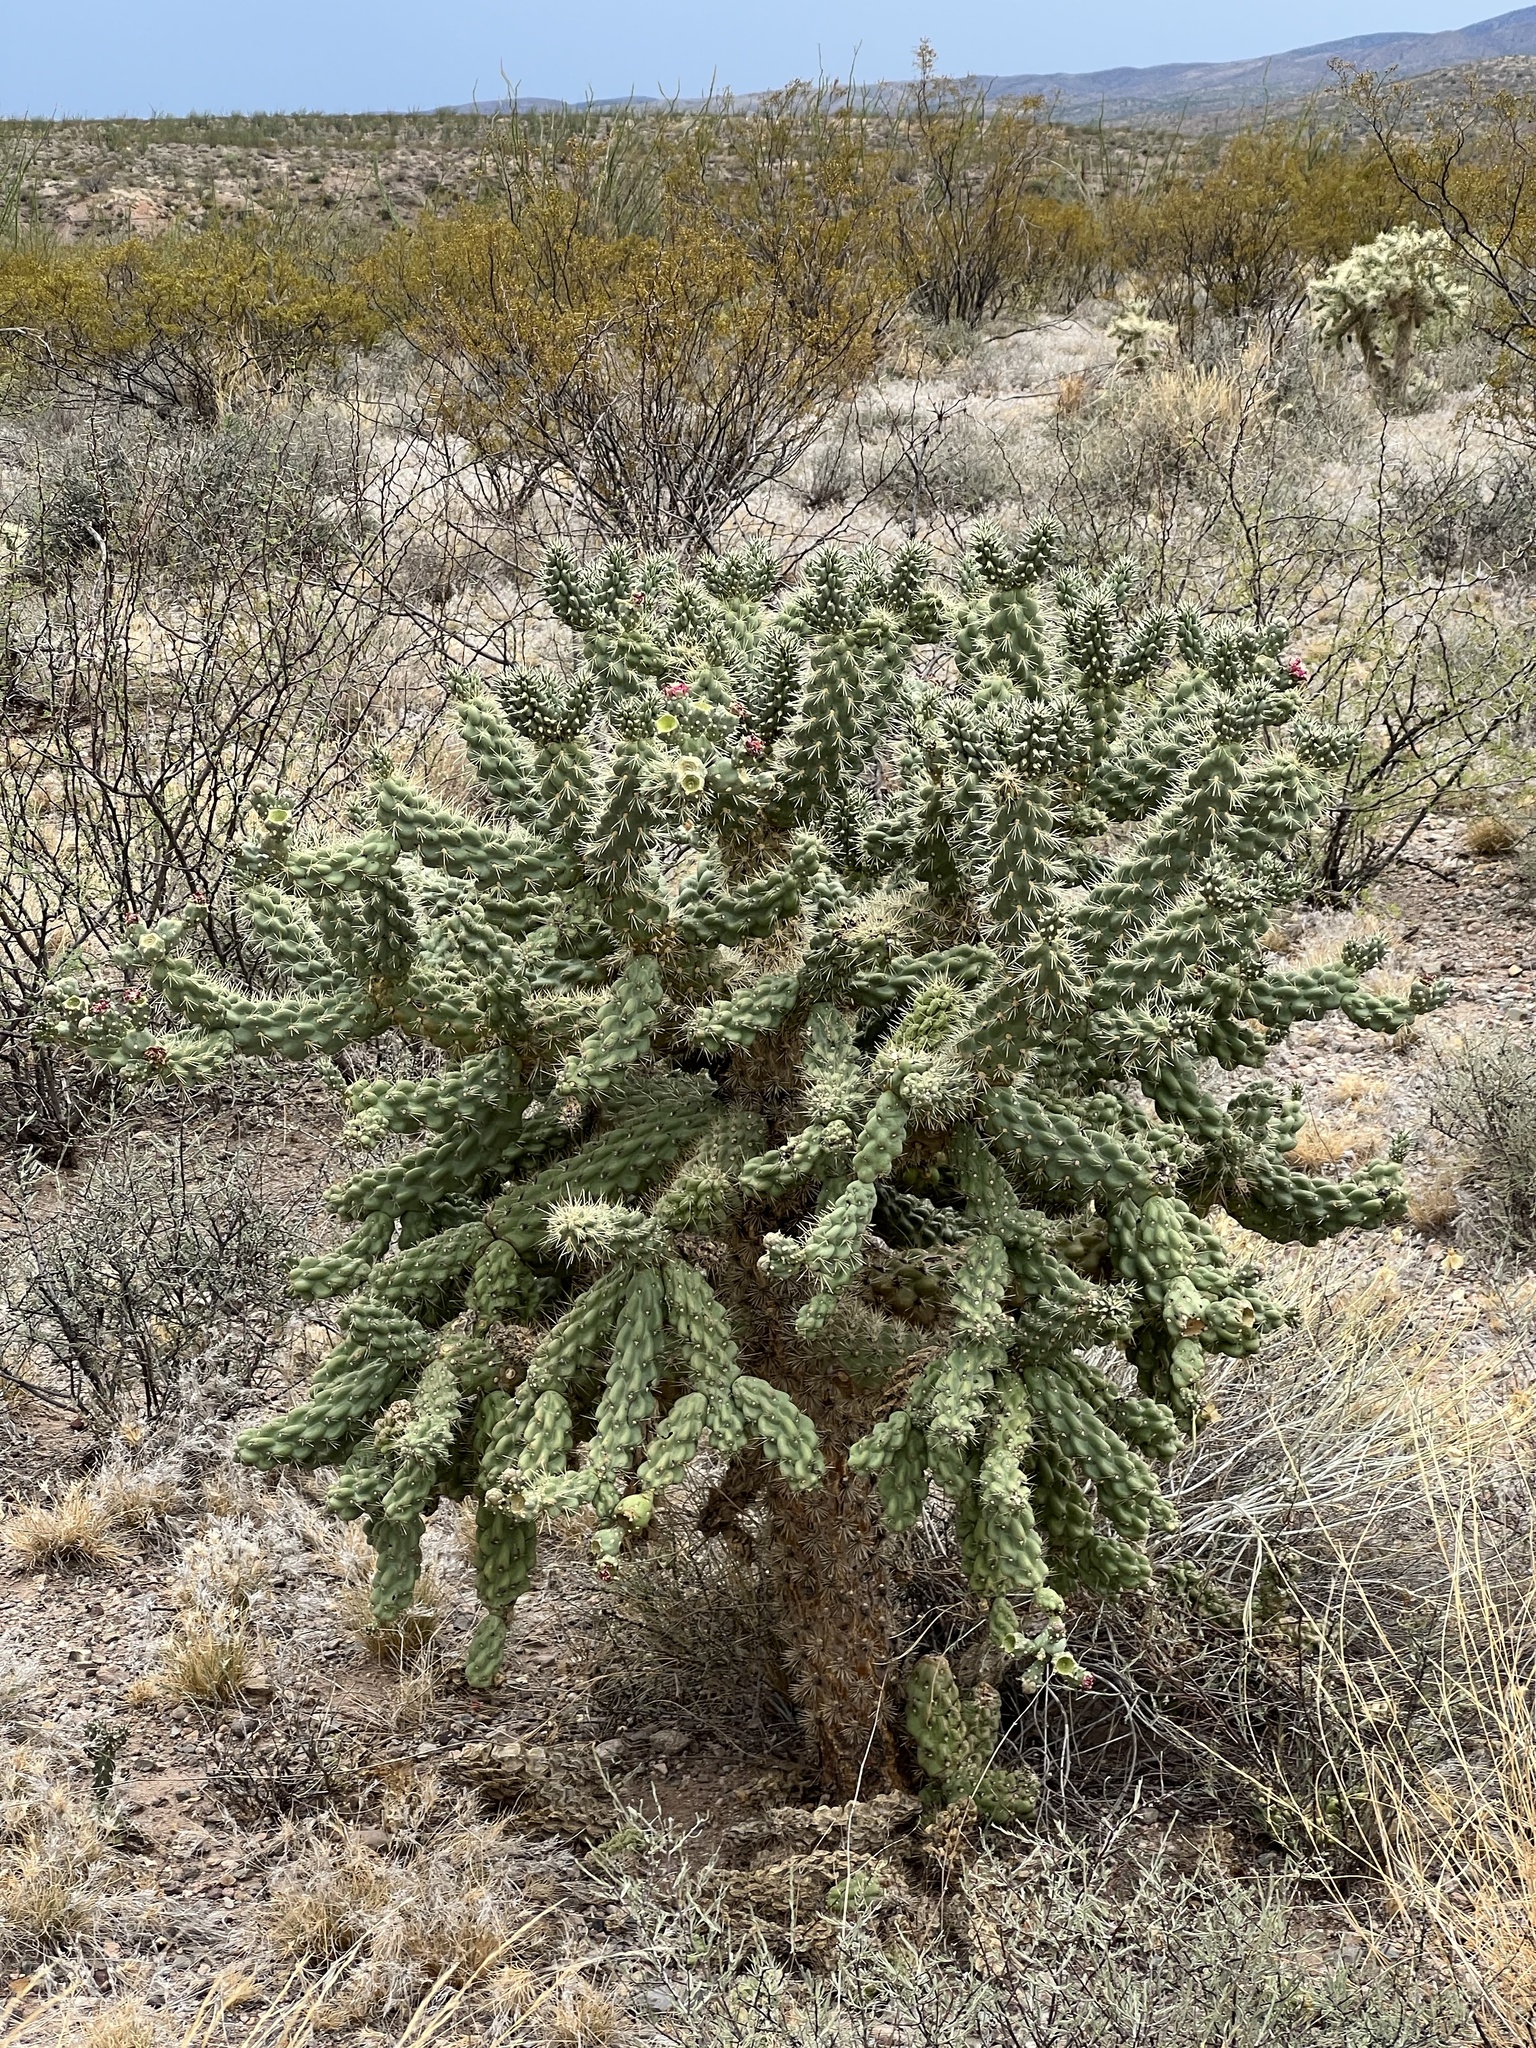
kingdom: Plantae
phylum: Tracheophyta
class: Magnoliopsida
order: Caryophyllales
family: Cactaceae
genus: Cylindropuntia
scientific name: Cylindropuntia fulgida
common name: Jumping cholla
